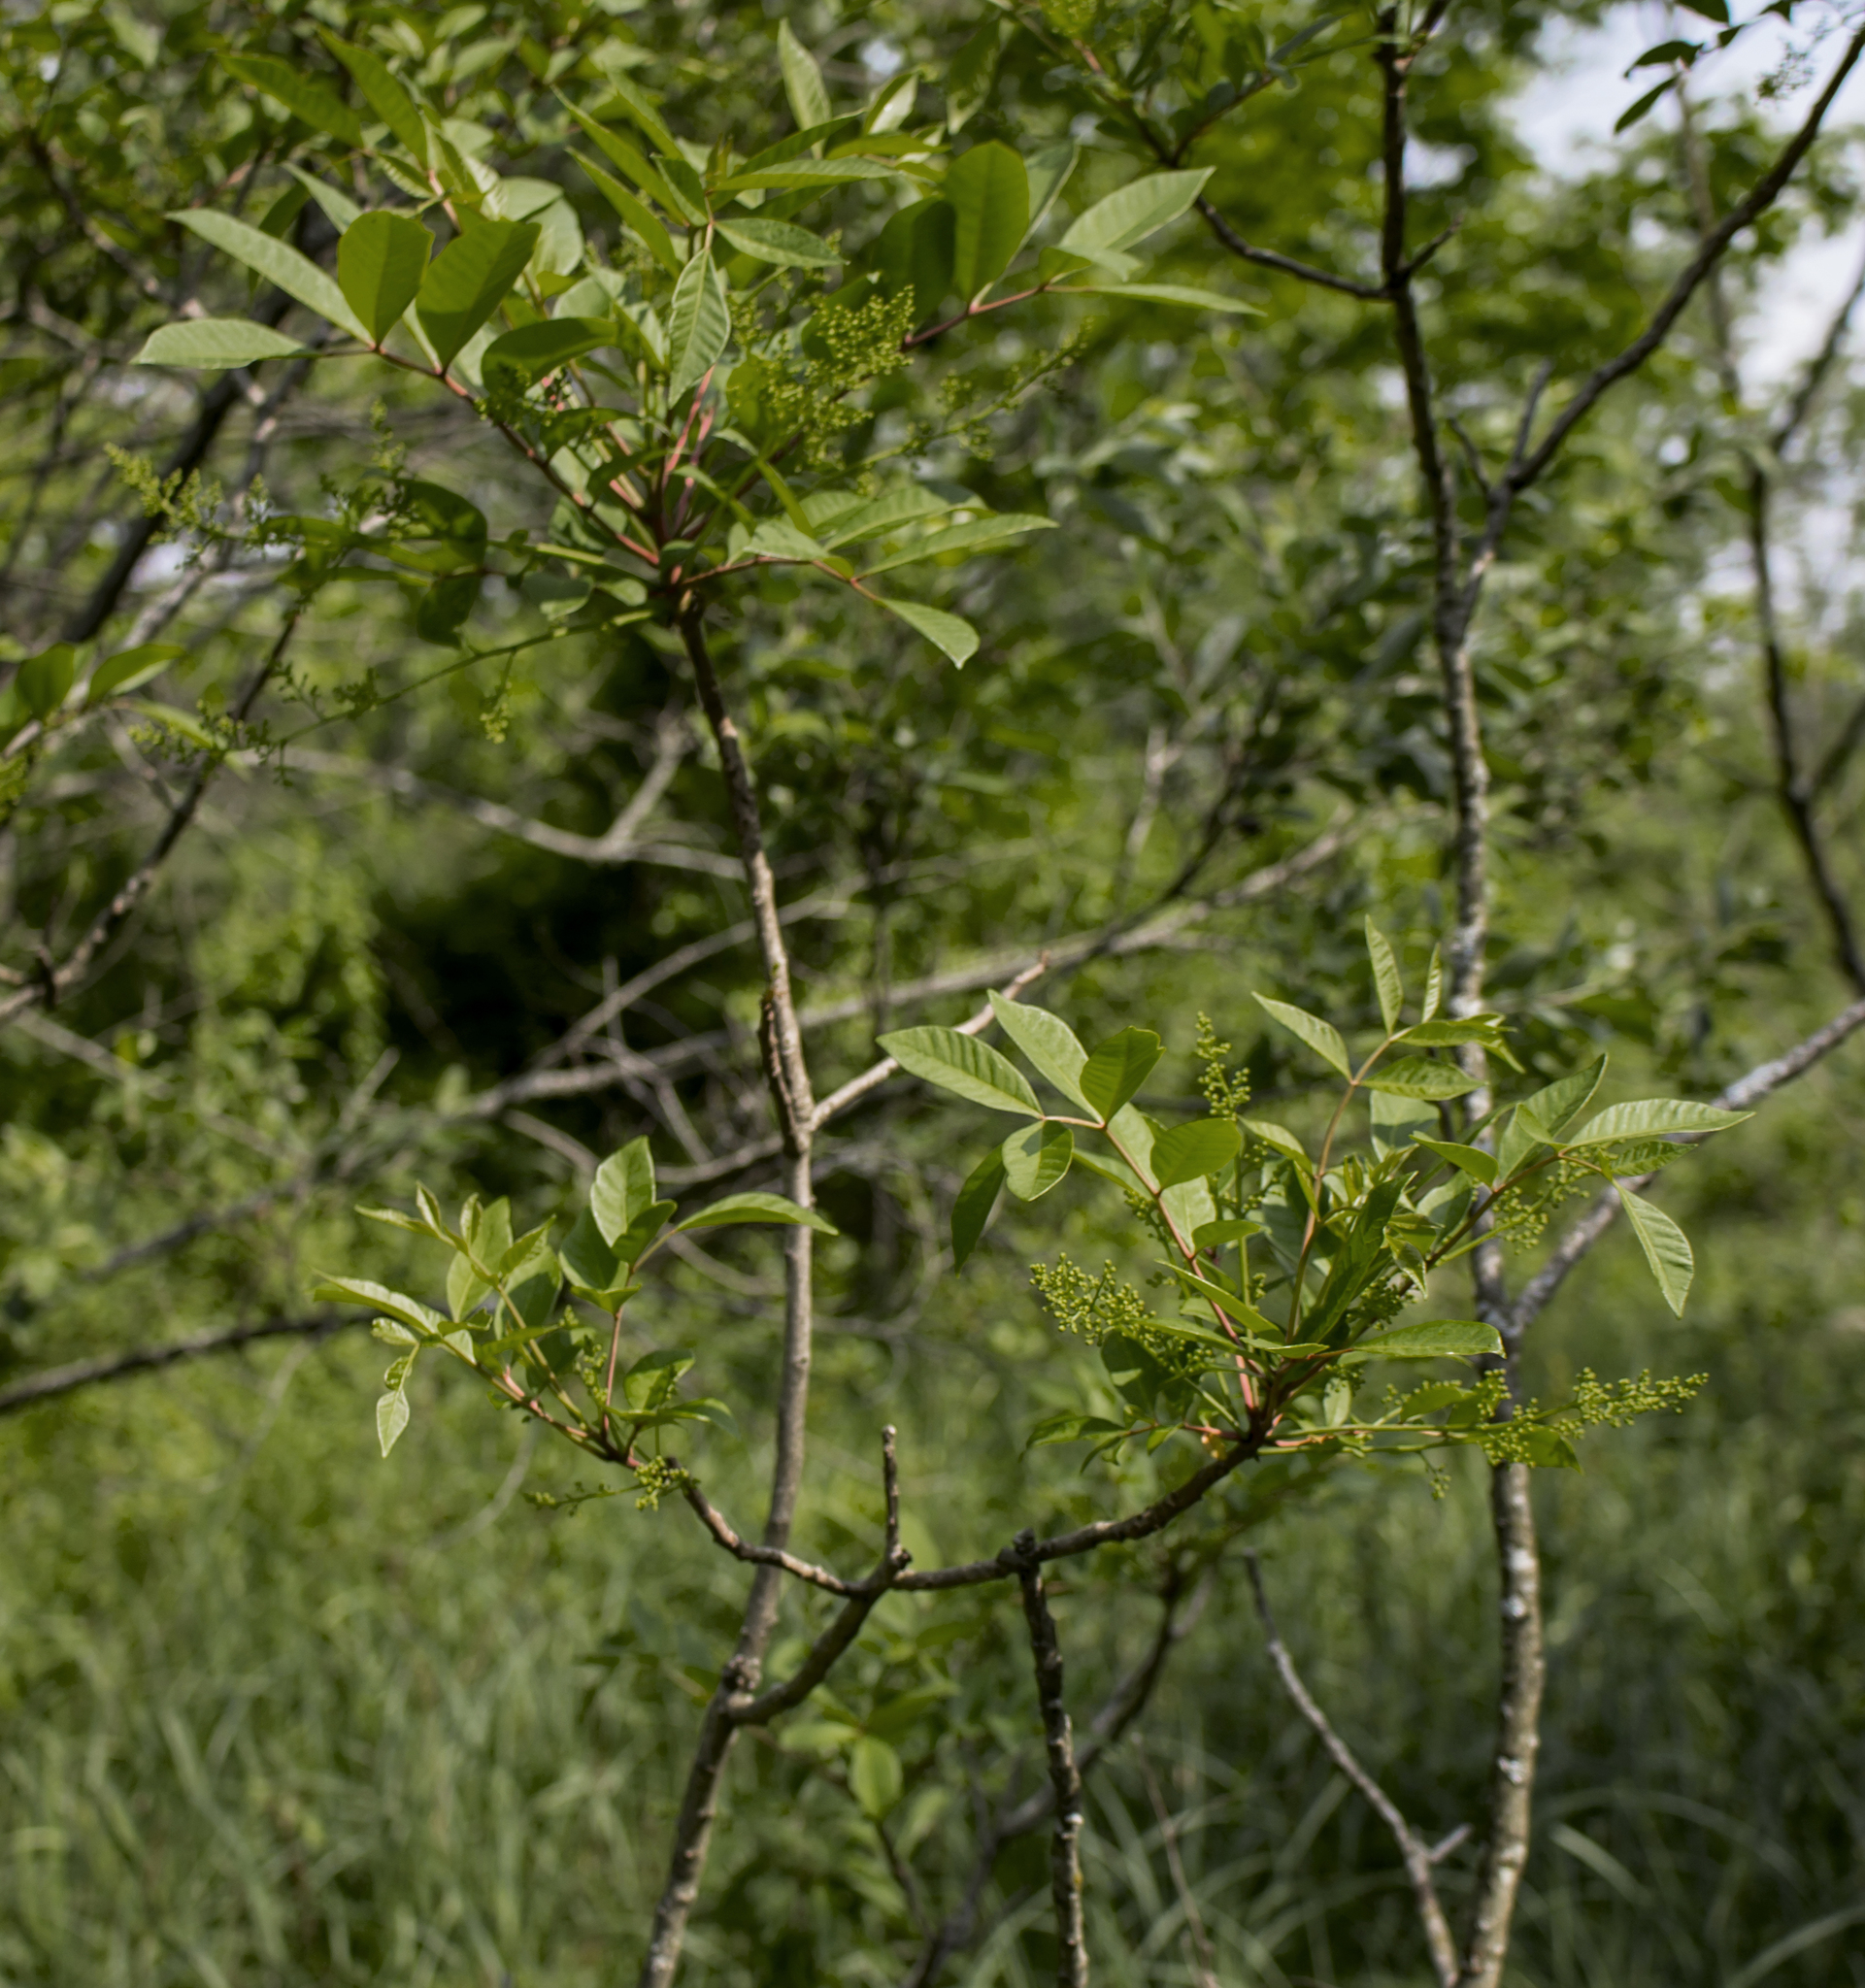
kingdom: Plantae
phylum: Tracheophyta
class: Magnoliopsida
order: Sapindales
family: Anacardiaceae
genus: Toxicodendron
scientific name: Toxicodendron vernix
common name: Poison sumac
